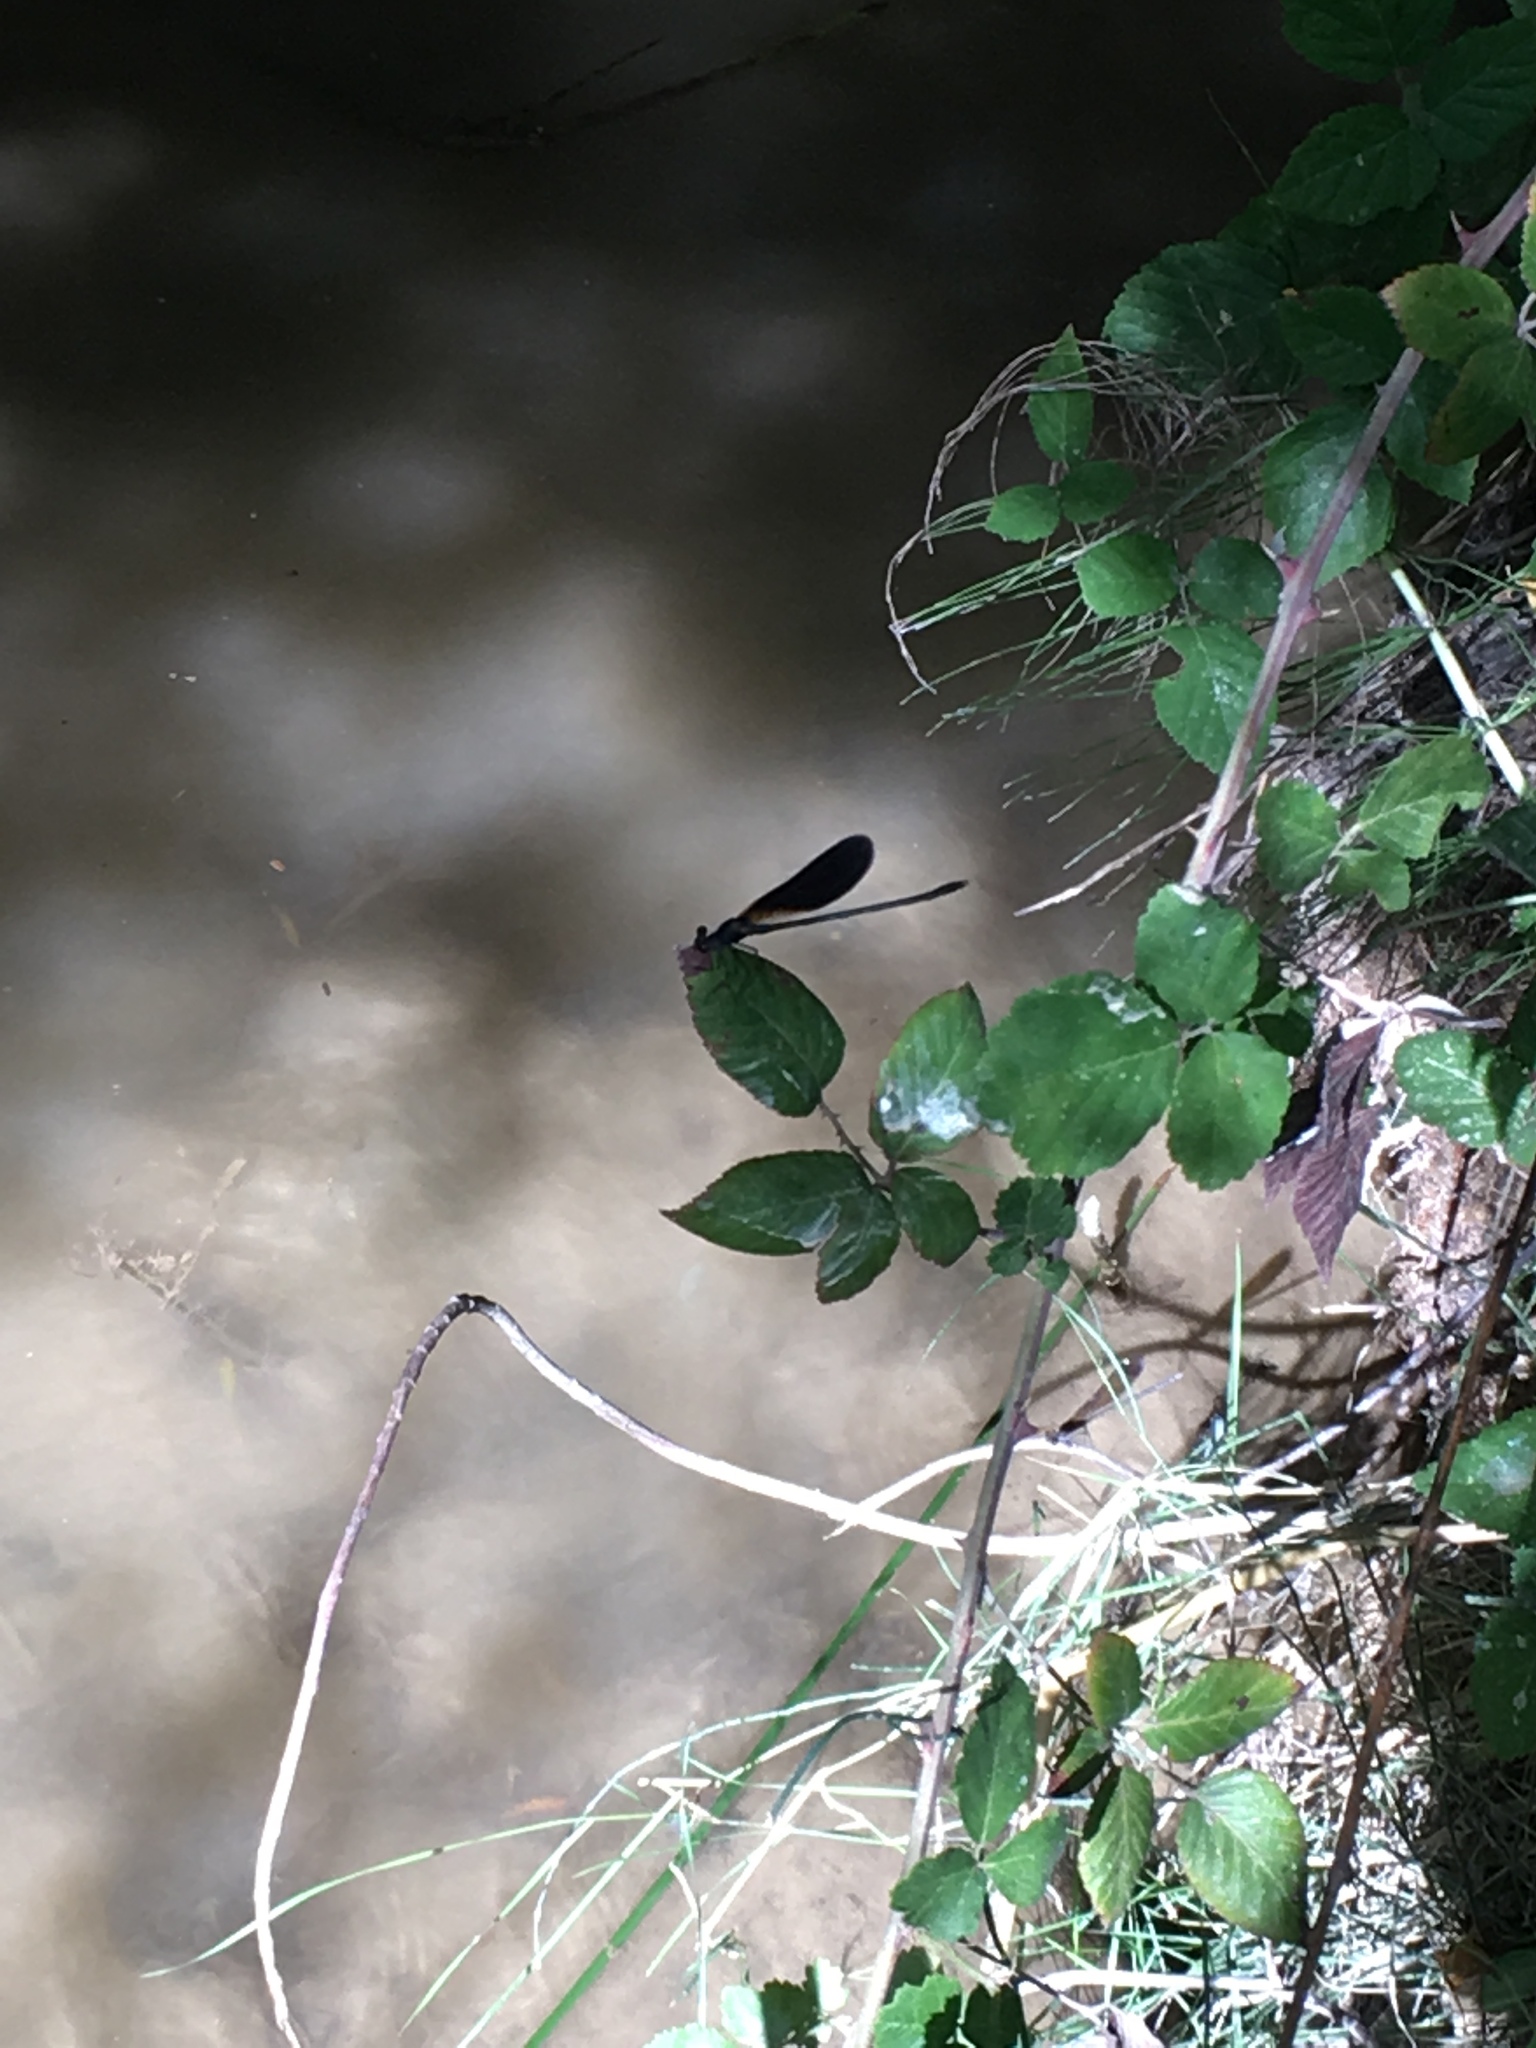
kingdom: Animalia
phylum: Arthropoda
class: Insecta
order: Odonata
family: Calopterygidae
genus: Calopteryx
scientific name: Calopteryx haemorrhoidalis
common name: Copper demoiselle
